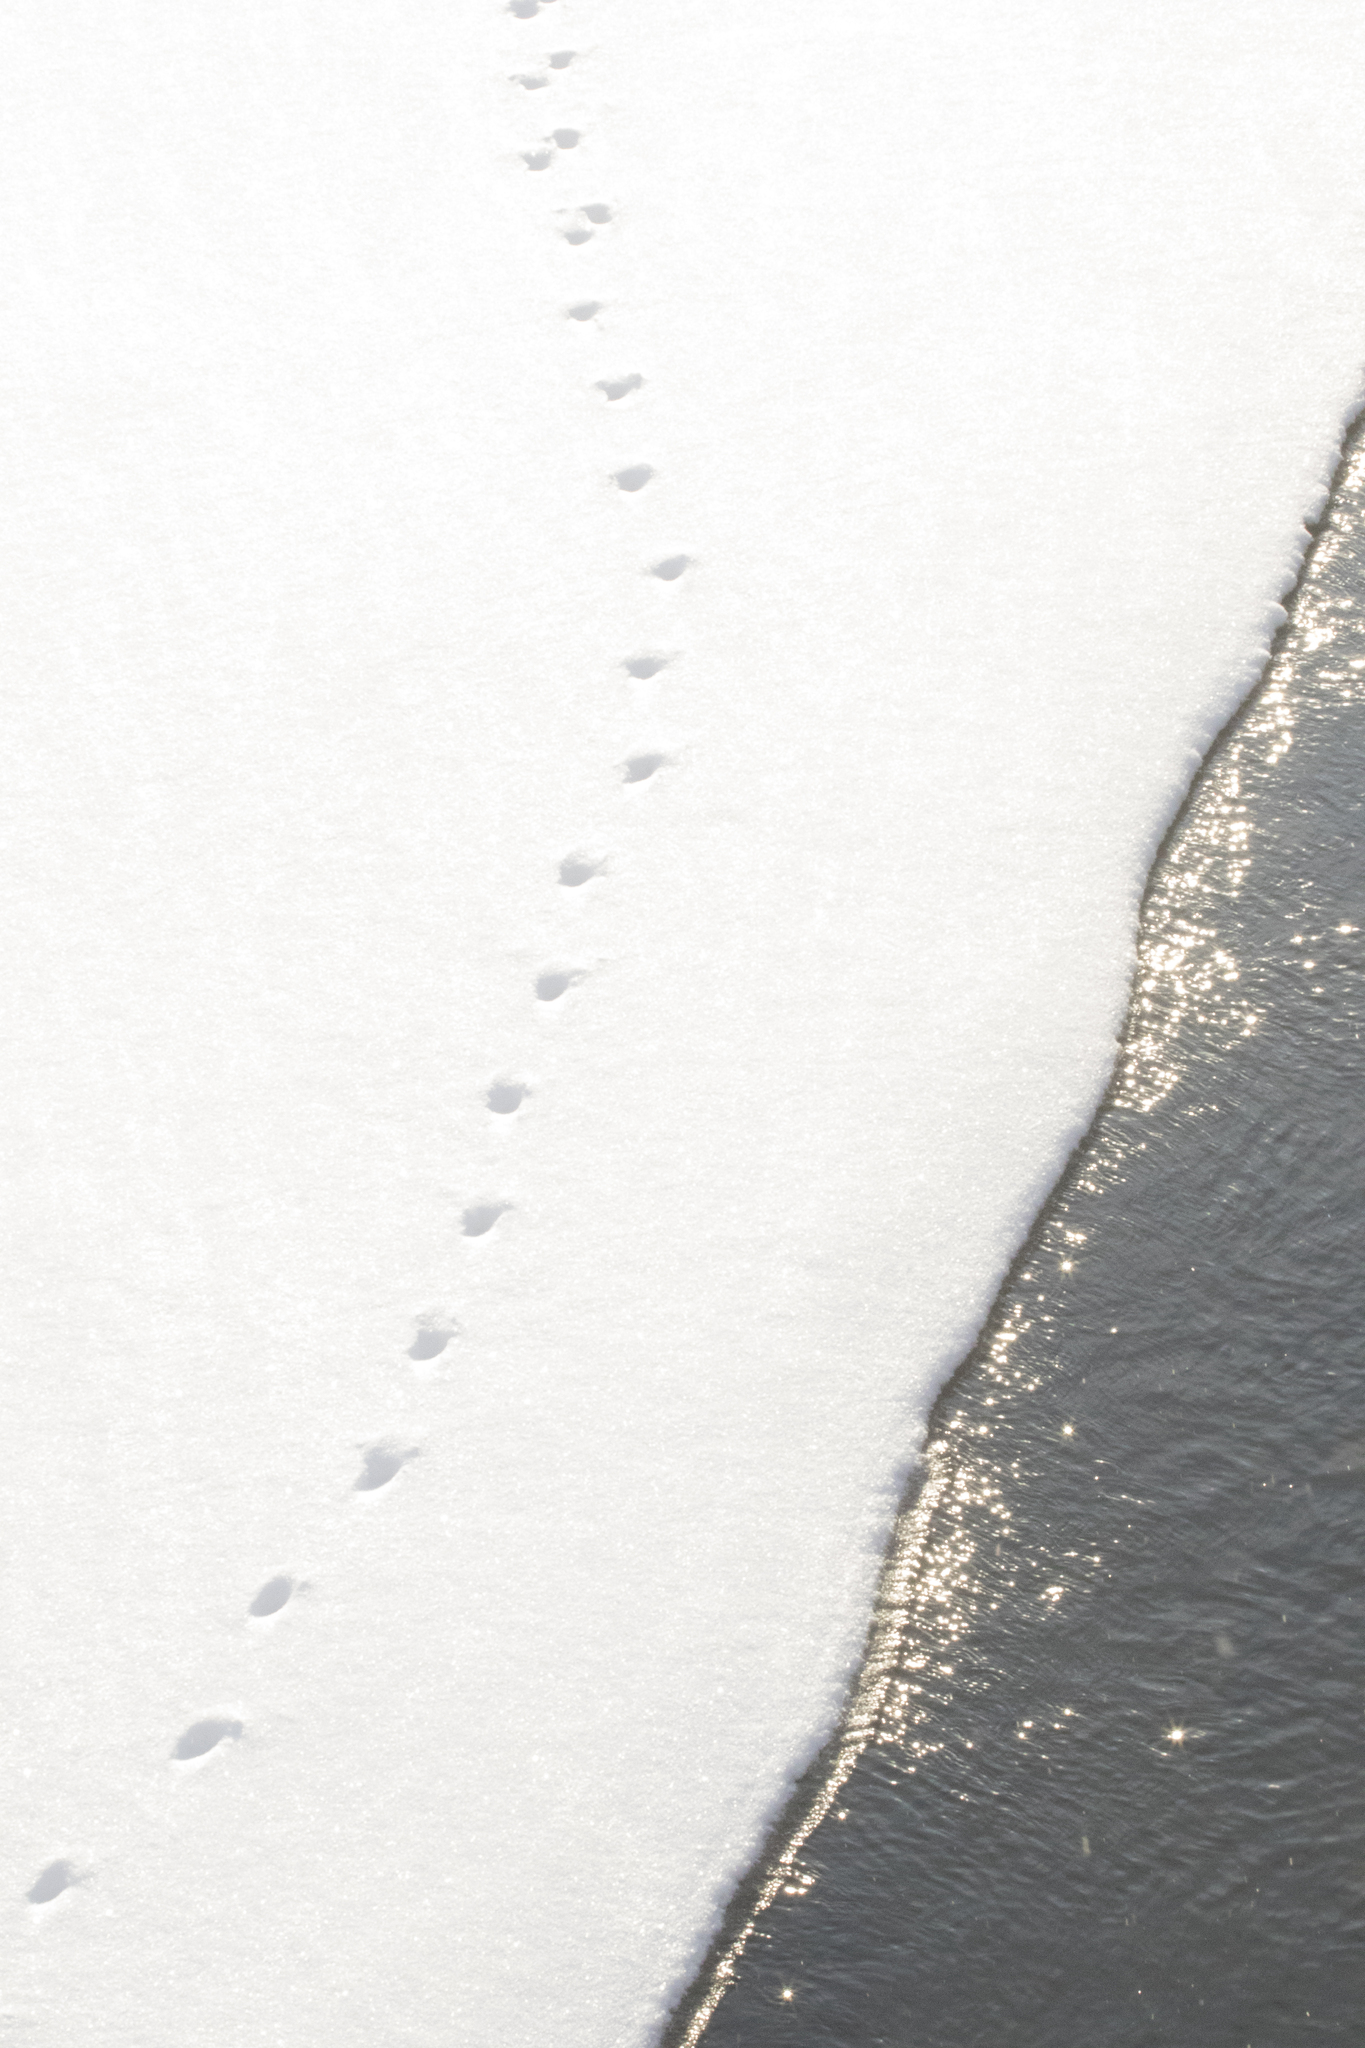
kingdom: Animalia
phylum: Chordata
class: Mammalia
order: Carnivora
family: Canidae
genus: Vulpes
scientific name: Vulpes vulpes
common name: Red fox
